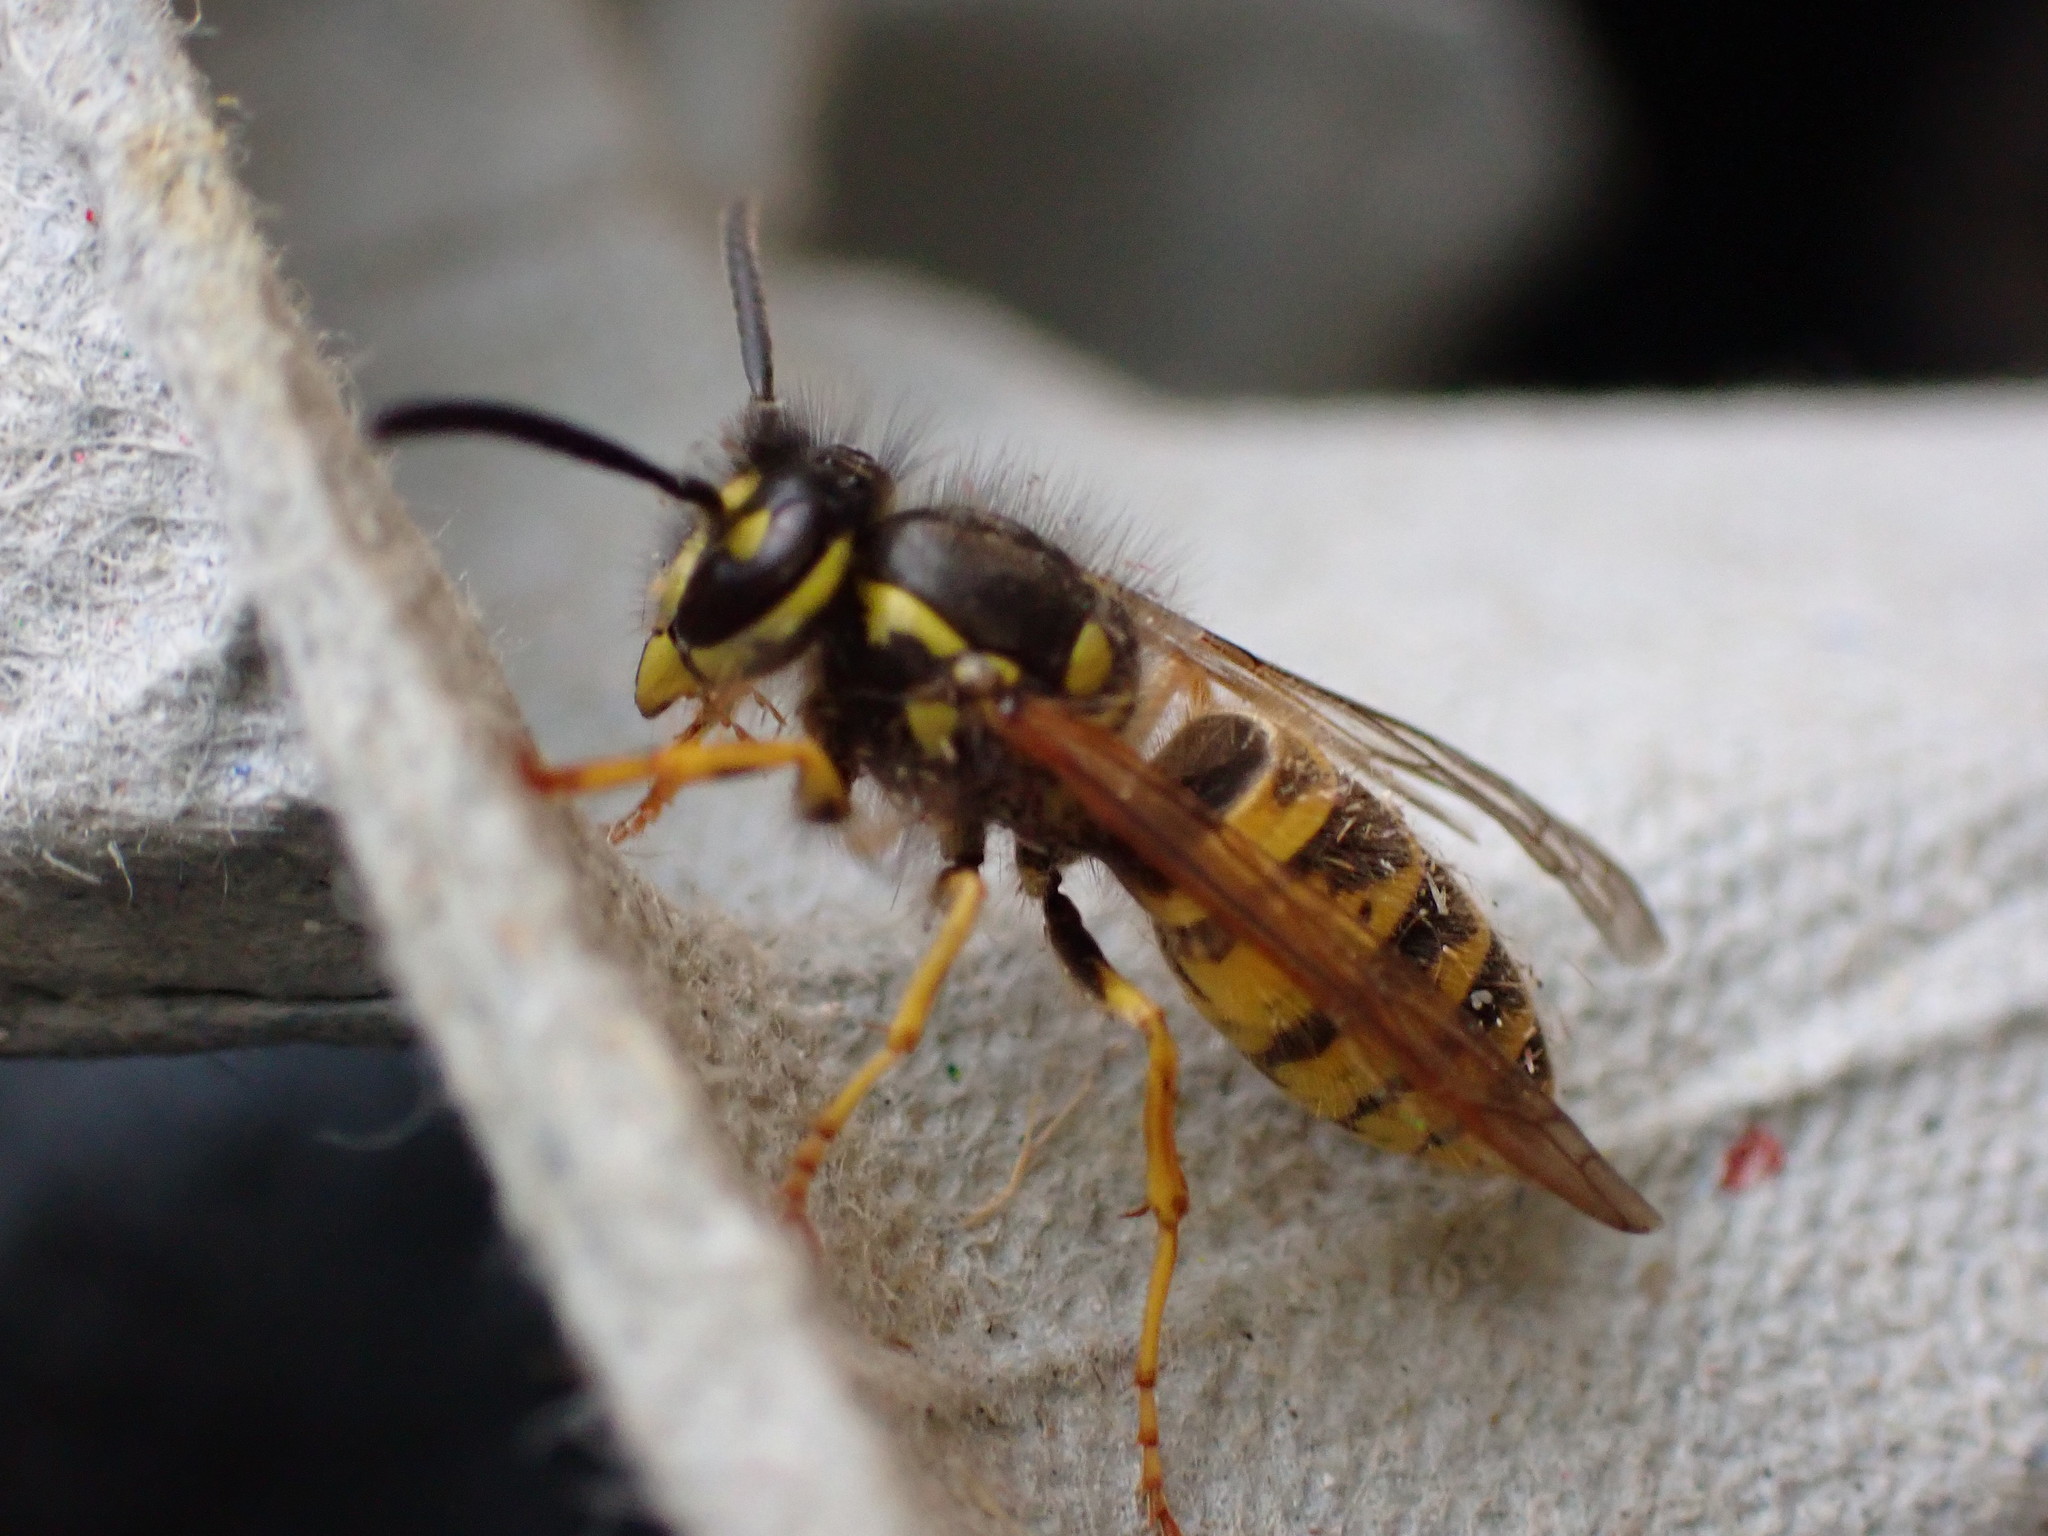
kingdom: Animalia
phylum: Arthropoda
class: Insecta
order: Hymenoptera
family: Vespidae
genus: Vespula
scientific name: Vespula vulgaris
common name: Common wasp
